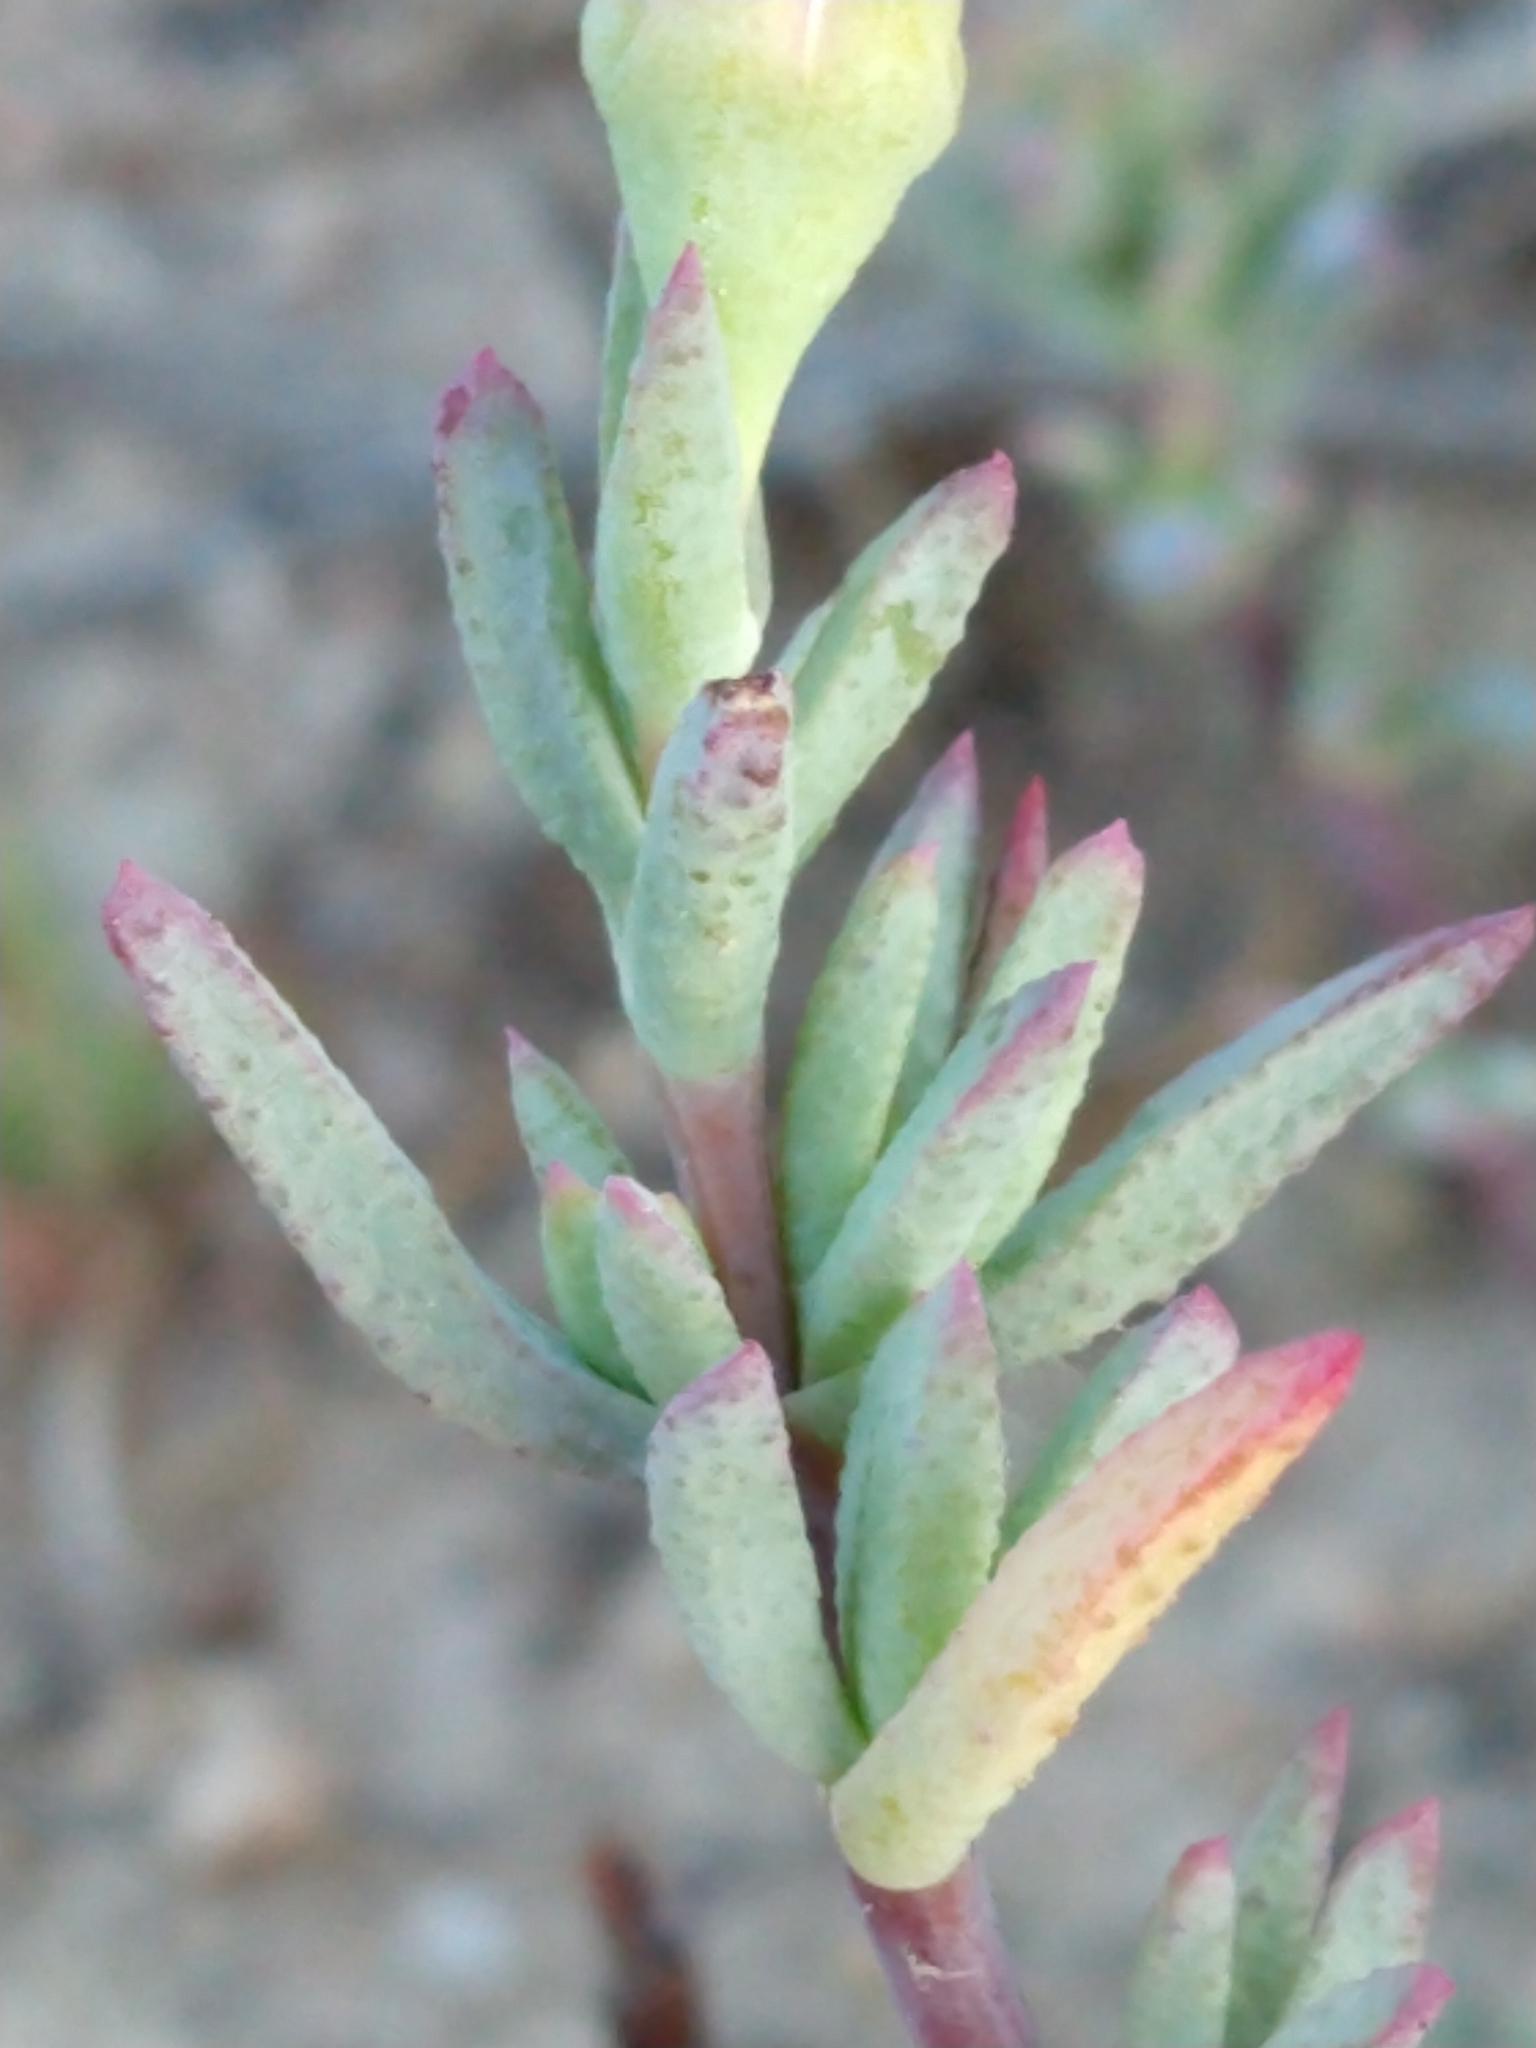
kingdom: Plantae
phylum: Tracheophyta
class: Magnoliopsida
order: Caryophyllales
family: Aizoaceae
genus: Lampranthus
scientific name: Lampranthus emarginatus
